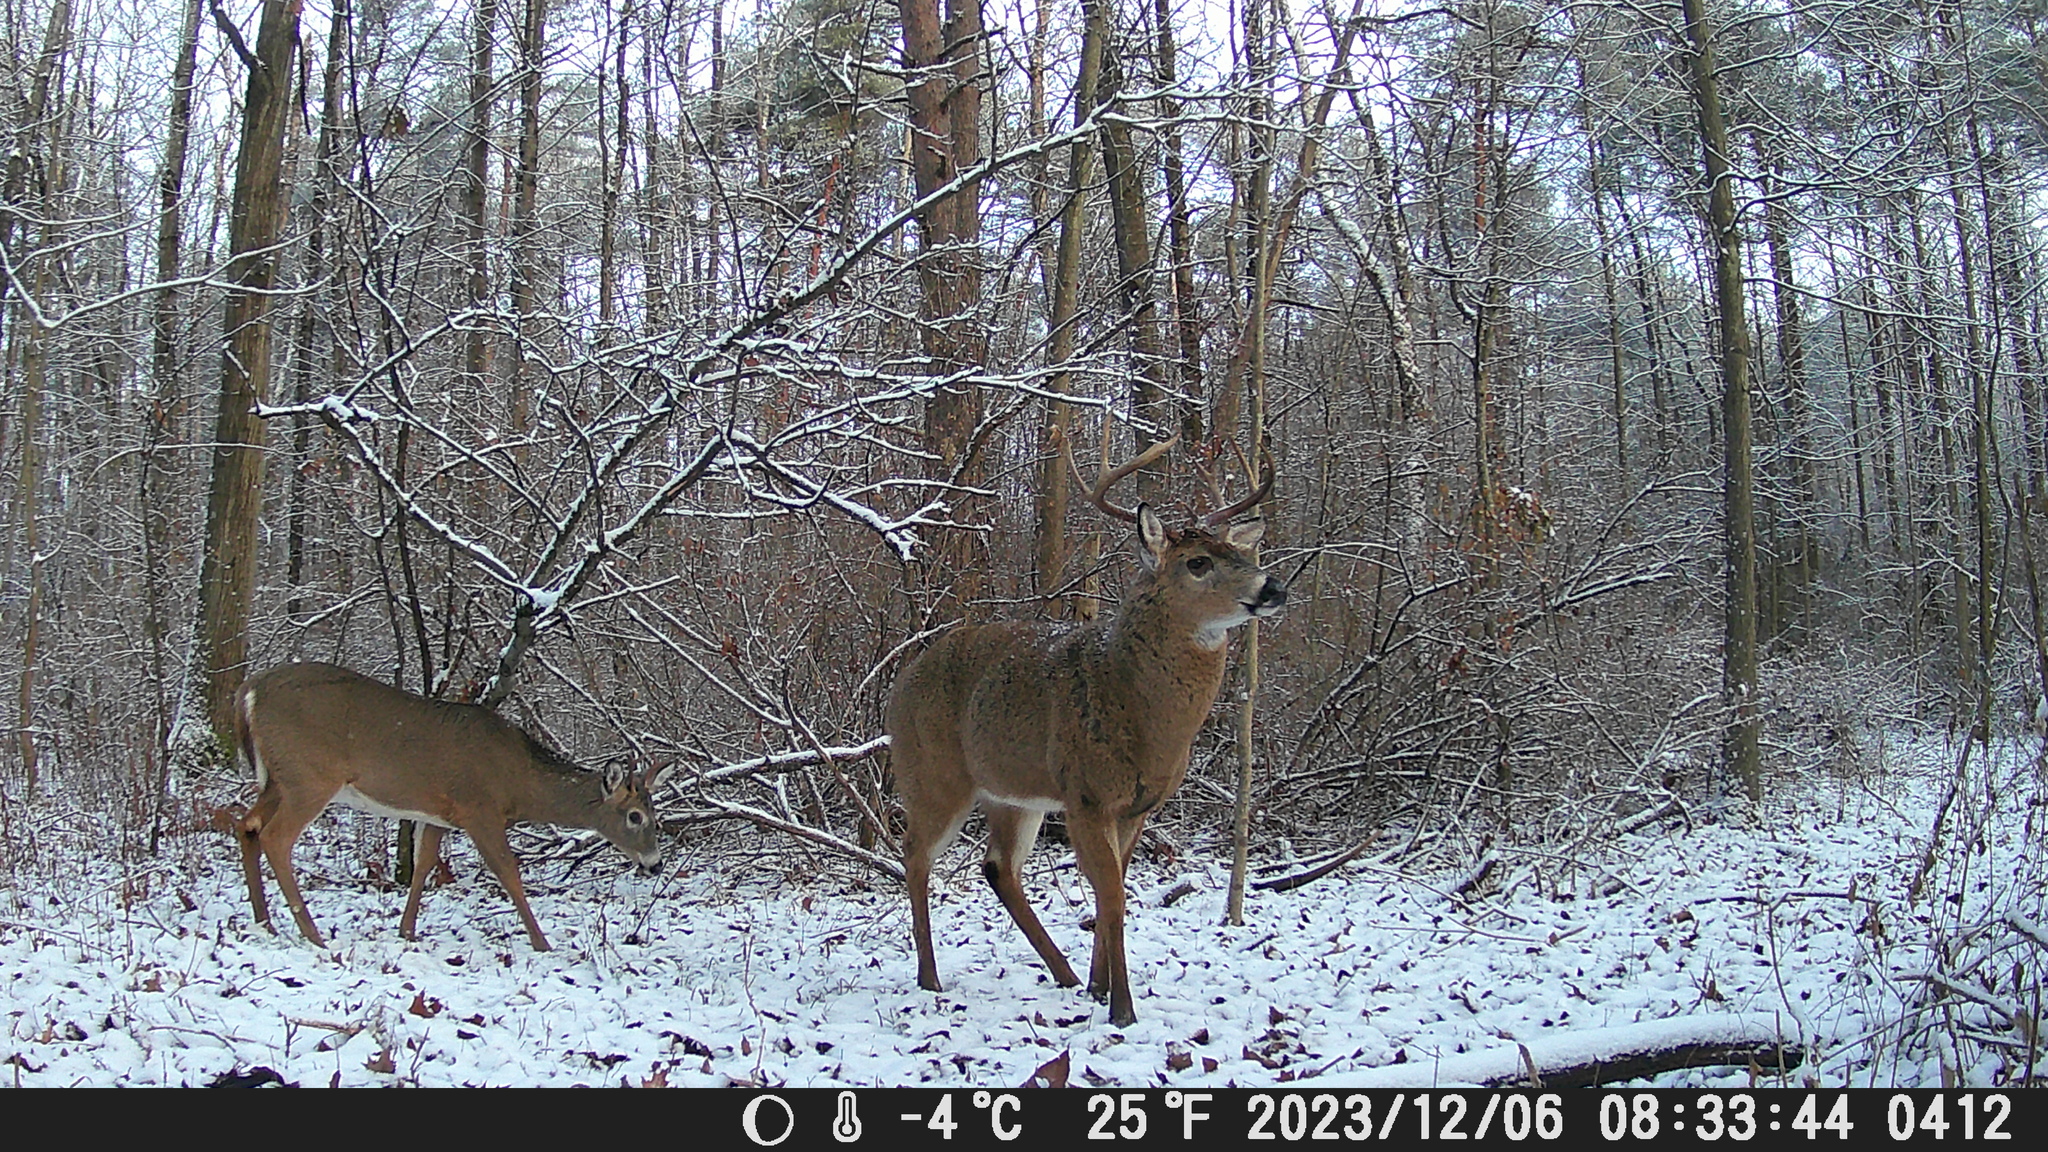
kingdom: Animalia
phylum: Chordata
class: Mammalia
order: Artiodactyla
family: Cervidae
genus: Odocoileus
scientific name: Odocoileus virginianus
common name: White-tailed deer
